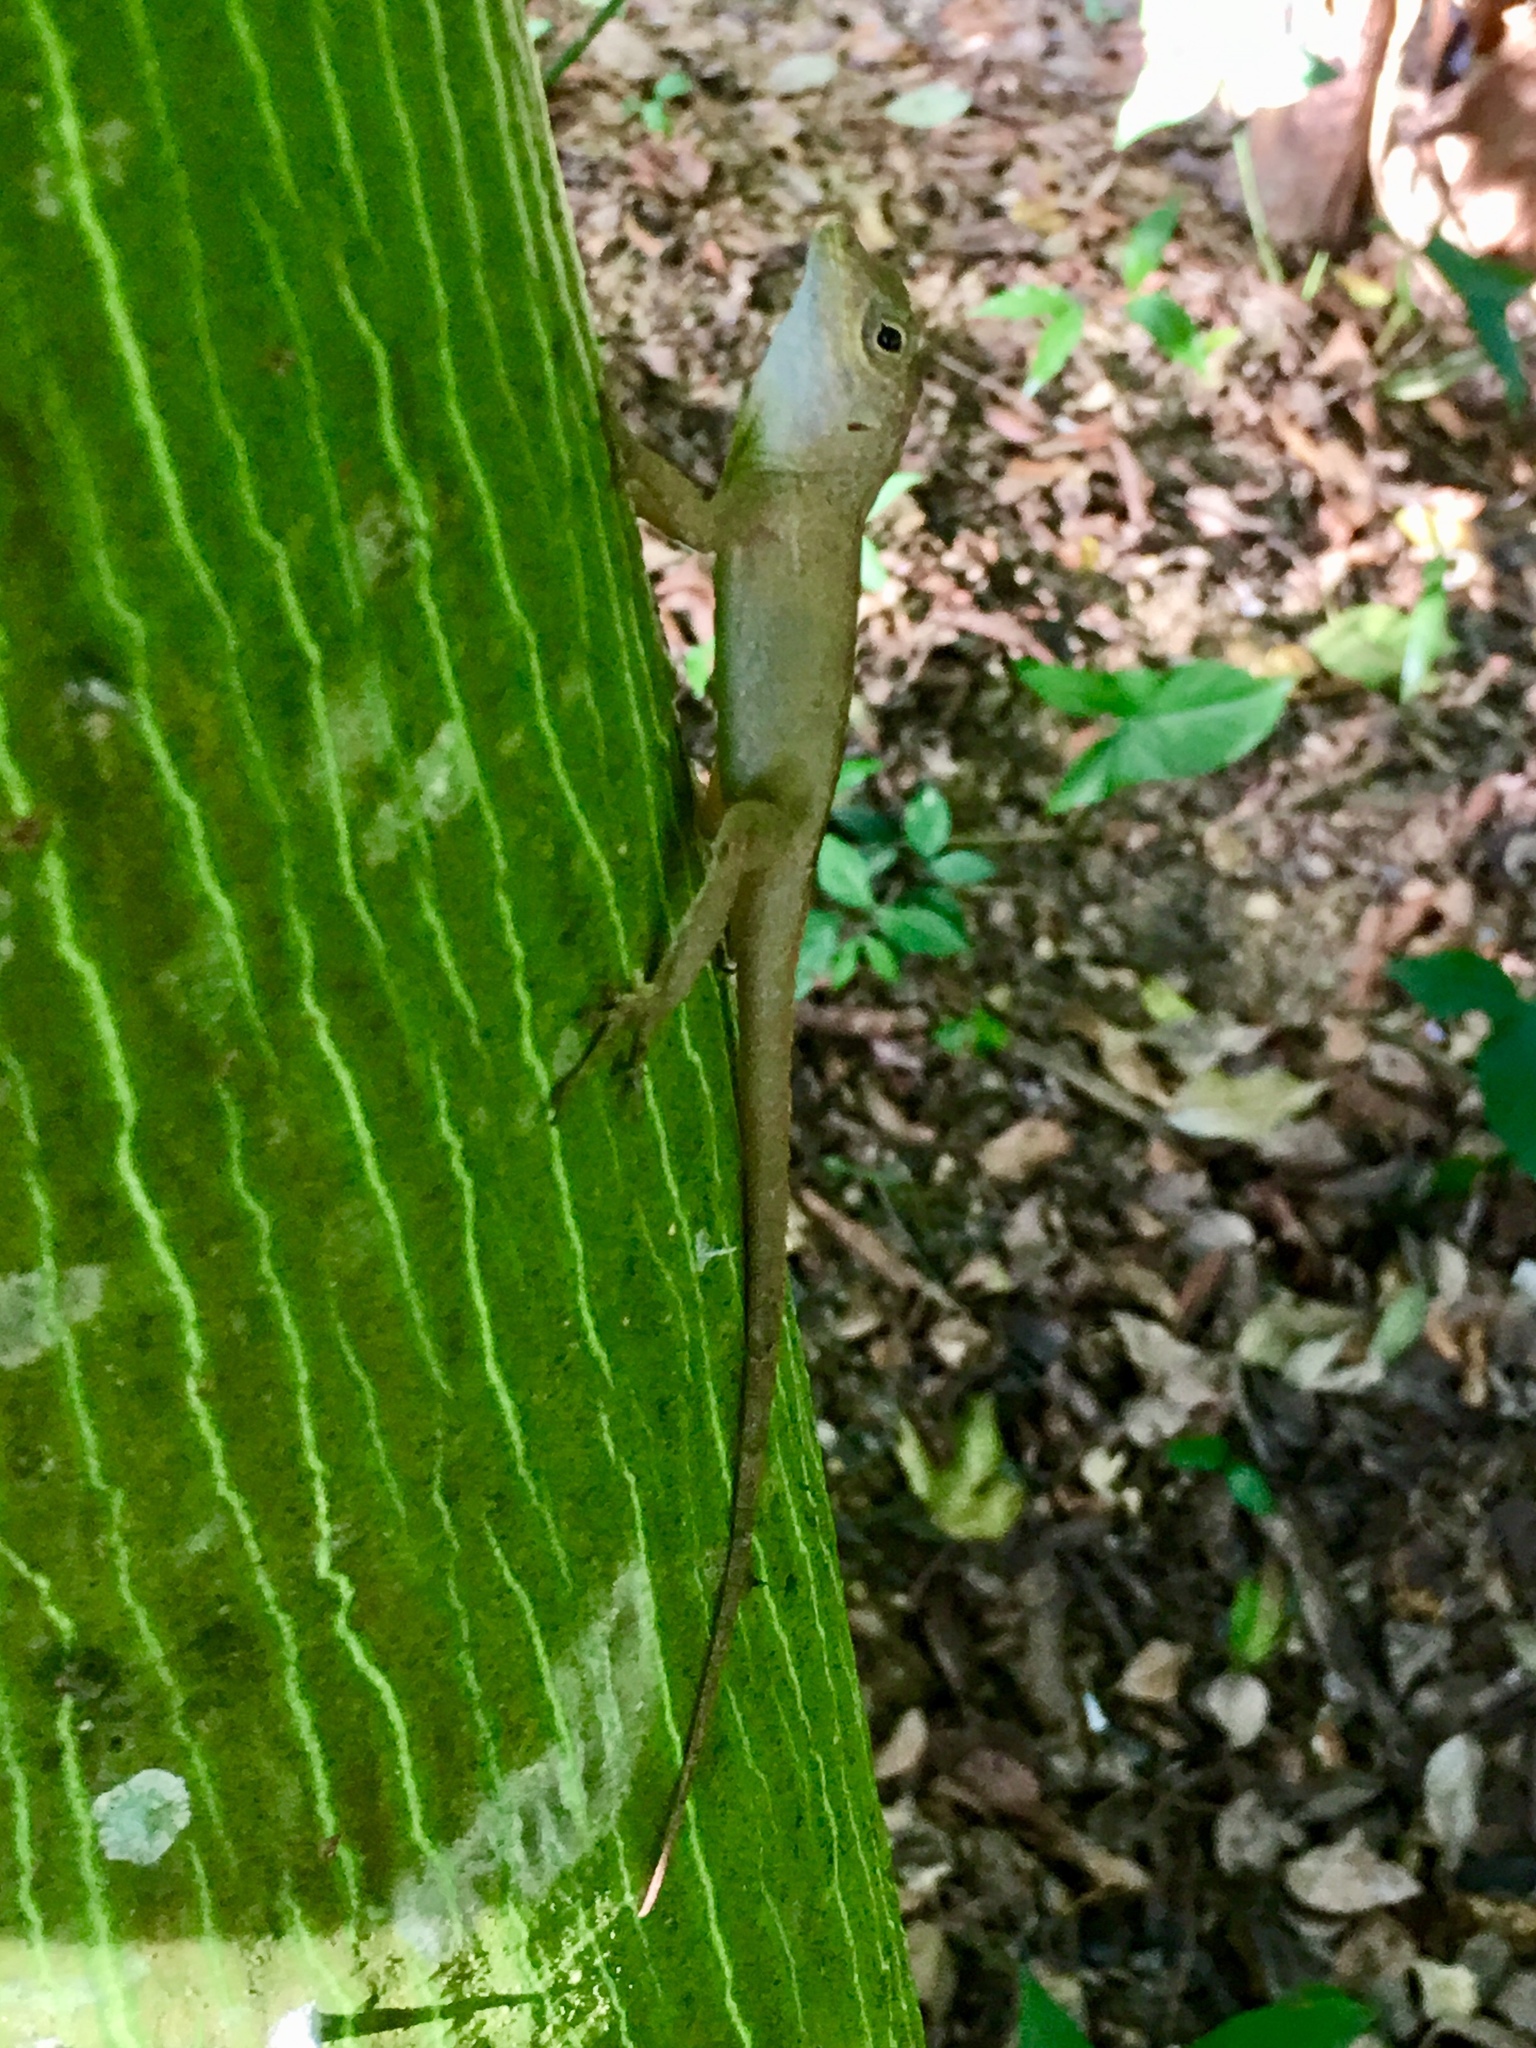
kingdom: Animalia
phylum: Chordata
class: Squamata
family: Dactyloidae
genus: Anolis
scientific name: Anolis cristatellus
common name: Crested anole
